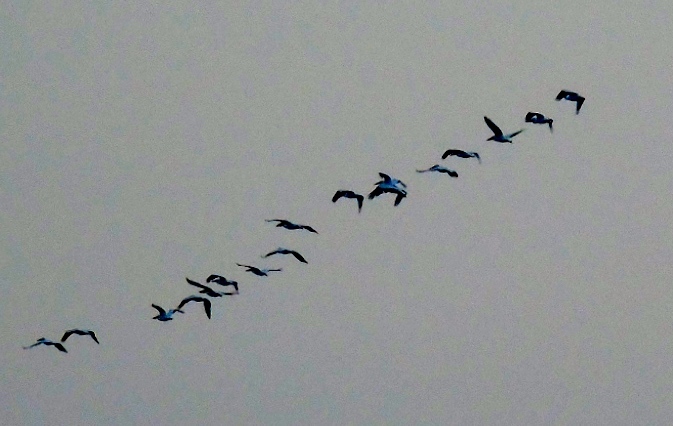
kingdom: Animalia
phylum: Chordata
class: Aves
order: Pelecaniformes
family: Pelecanidae
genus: Pelecanus
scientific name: Pelecanus erythrorhynchos
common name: American white pelican
